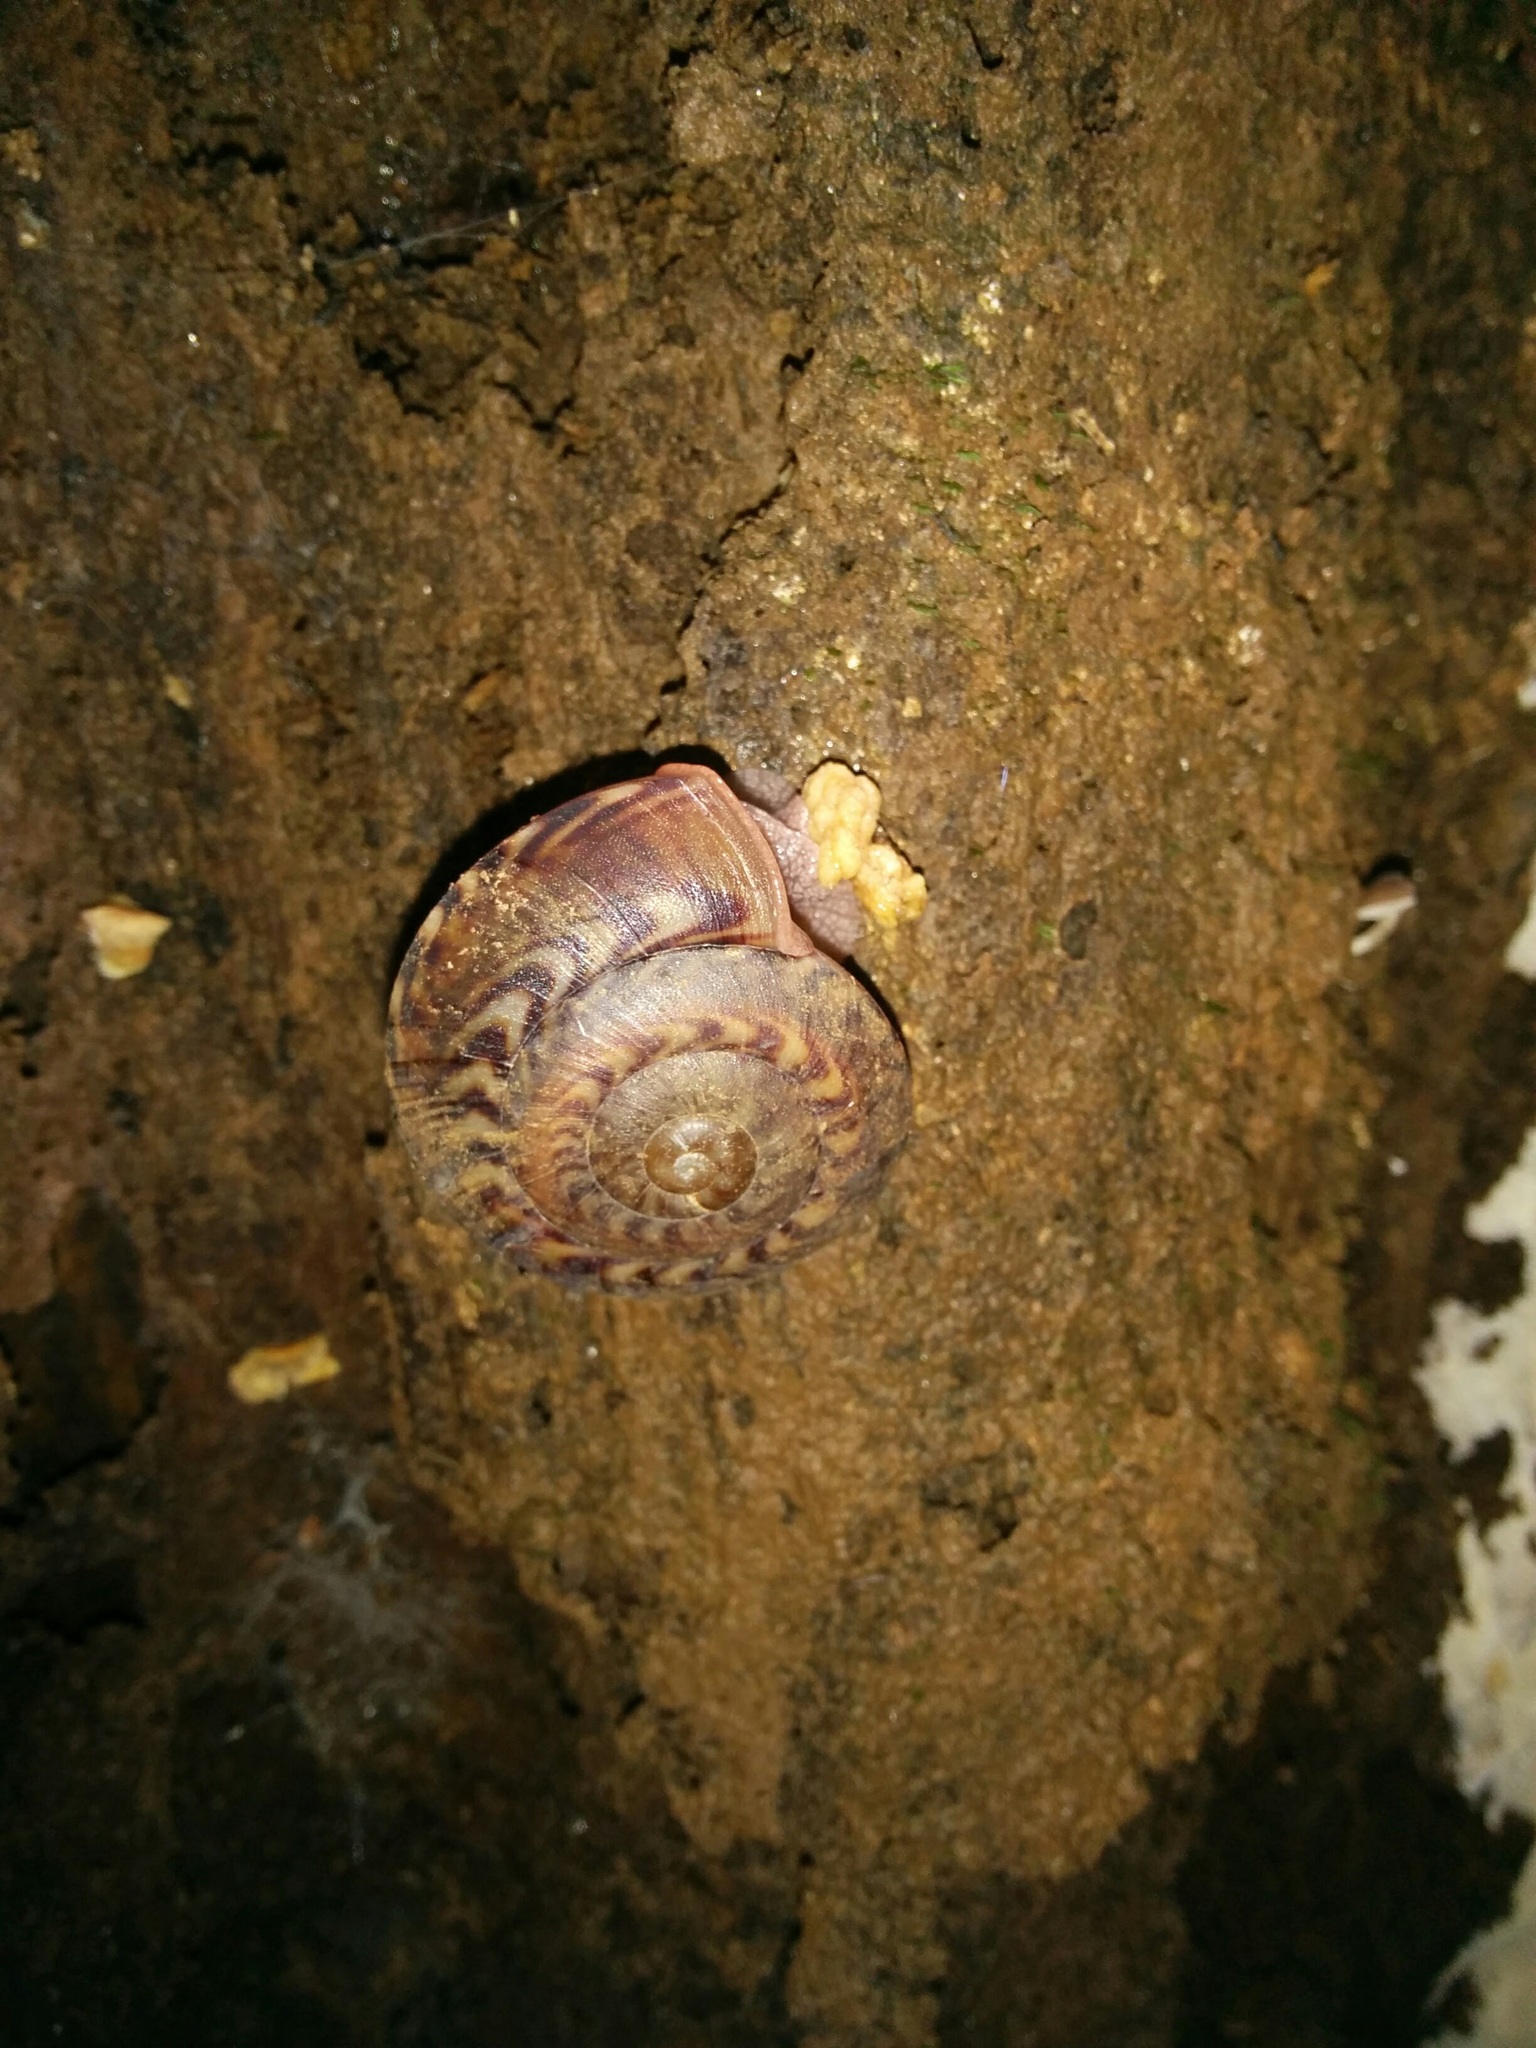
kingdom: Animalia
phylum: Mollusca
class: Gastropoda
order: Stylommatophora
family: Solaropsidae
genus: Solaropsis
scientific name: Solaropsis undata
